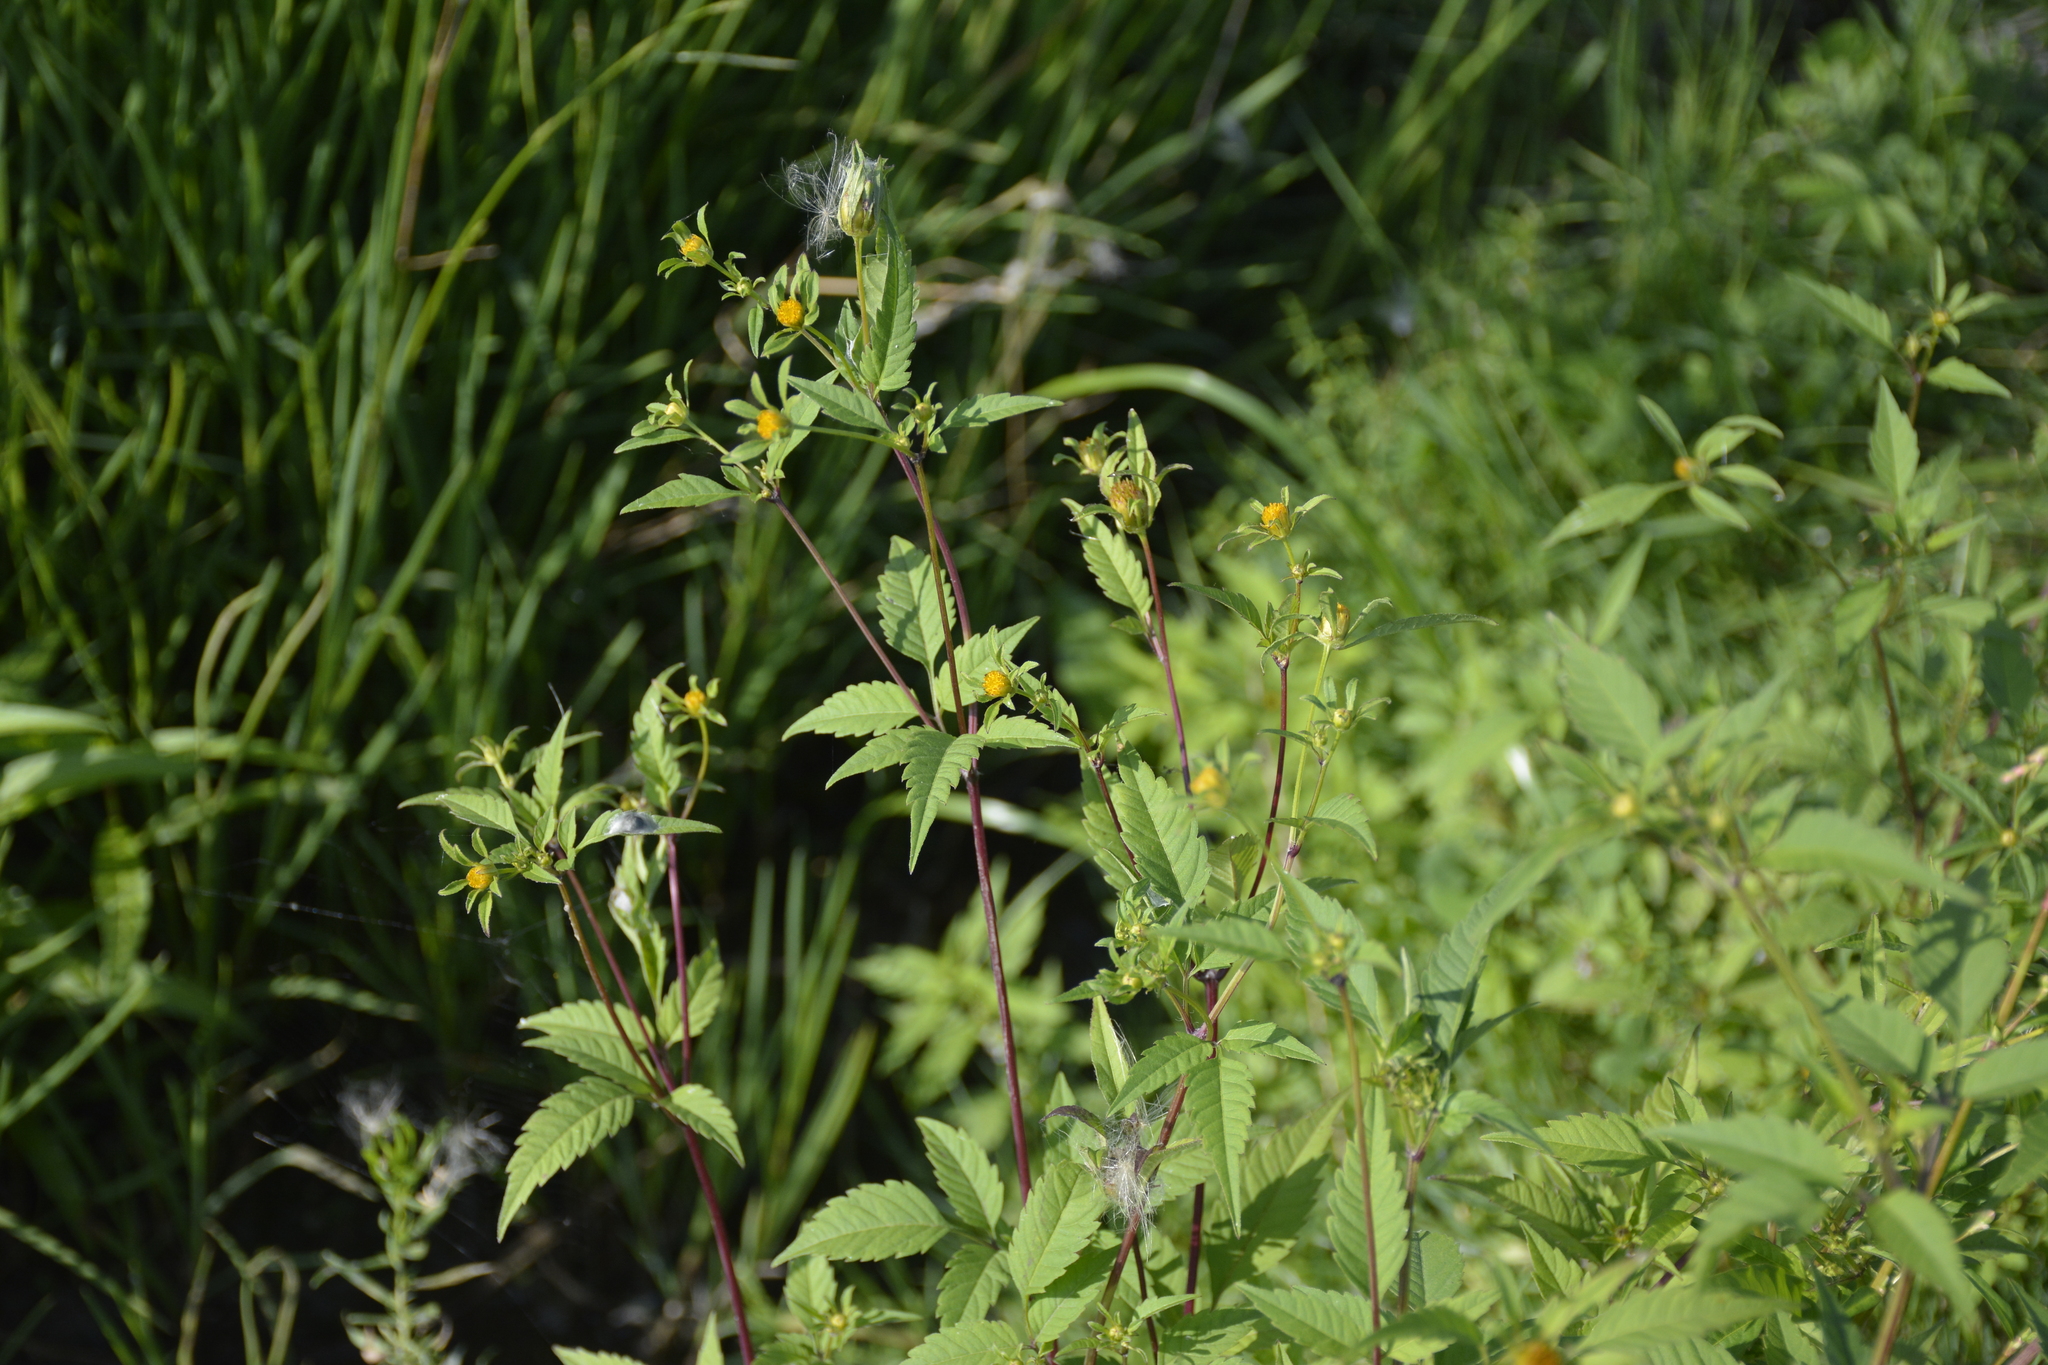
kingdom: Plantae
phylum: Tracheophyta
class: Magnoliopsida
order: Asterales
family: Asteraceae
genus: Bidens
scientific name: Bidens frondosa
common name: Beggarticks
